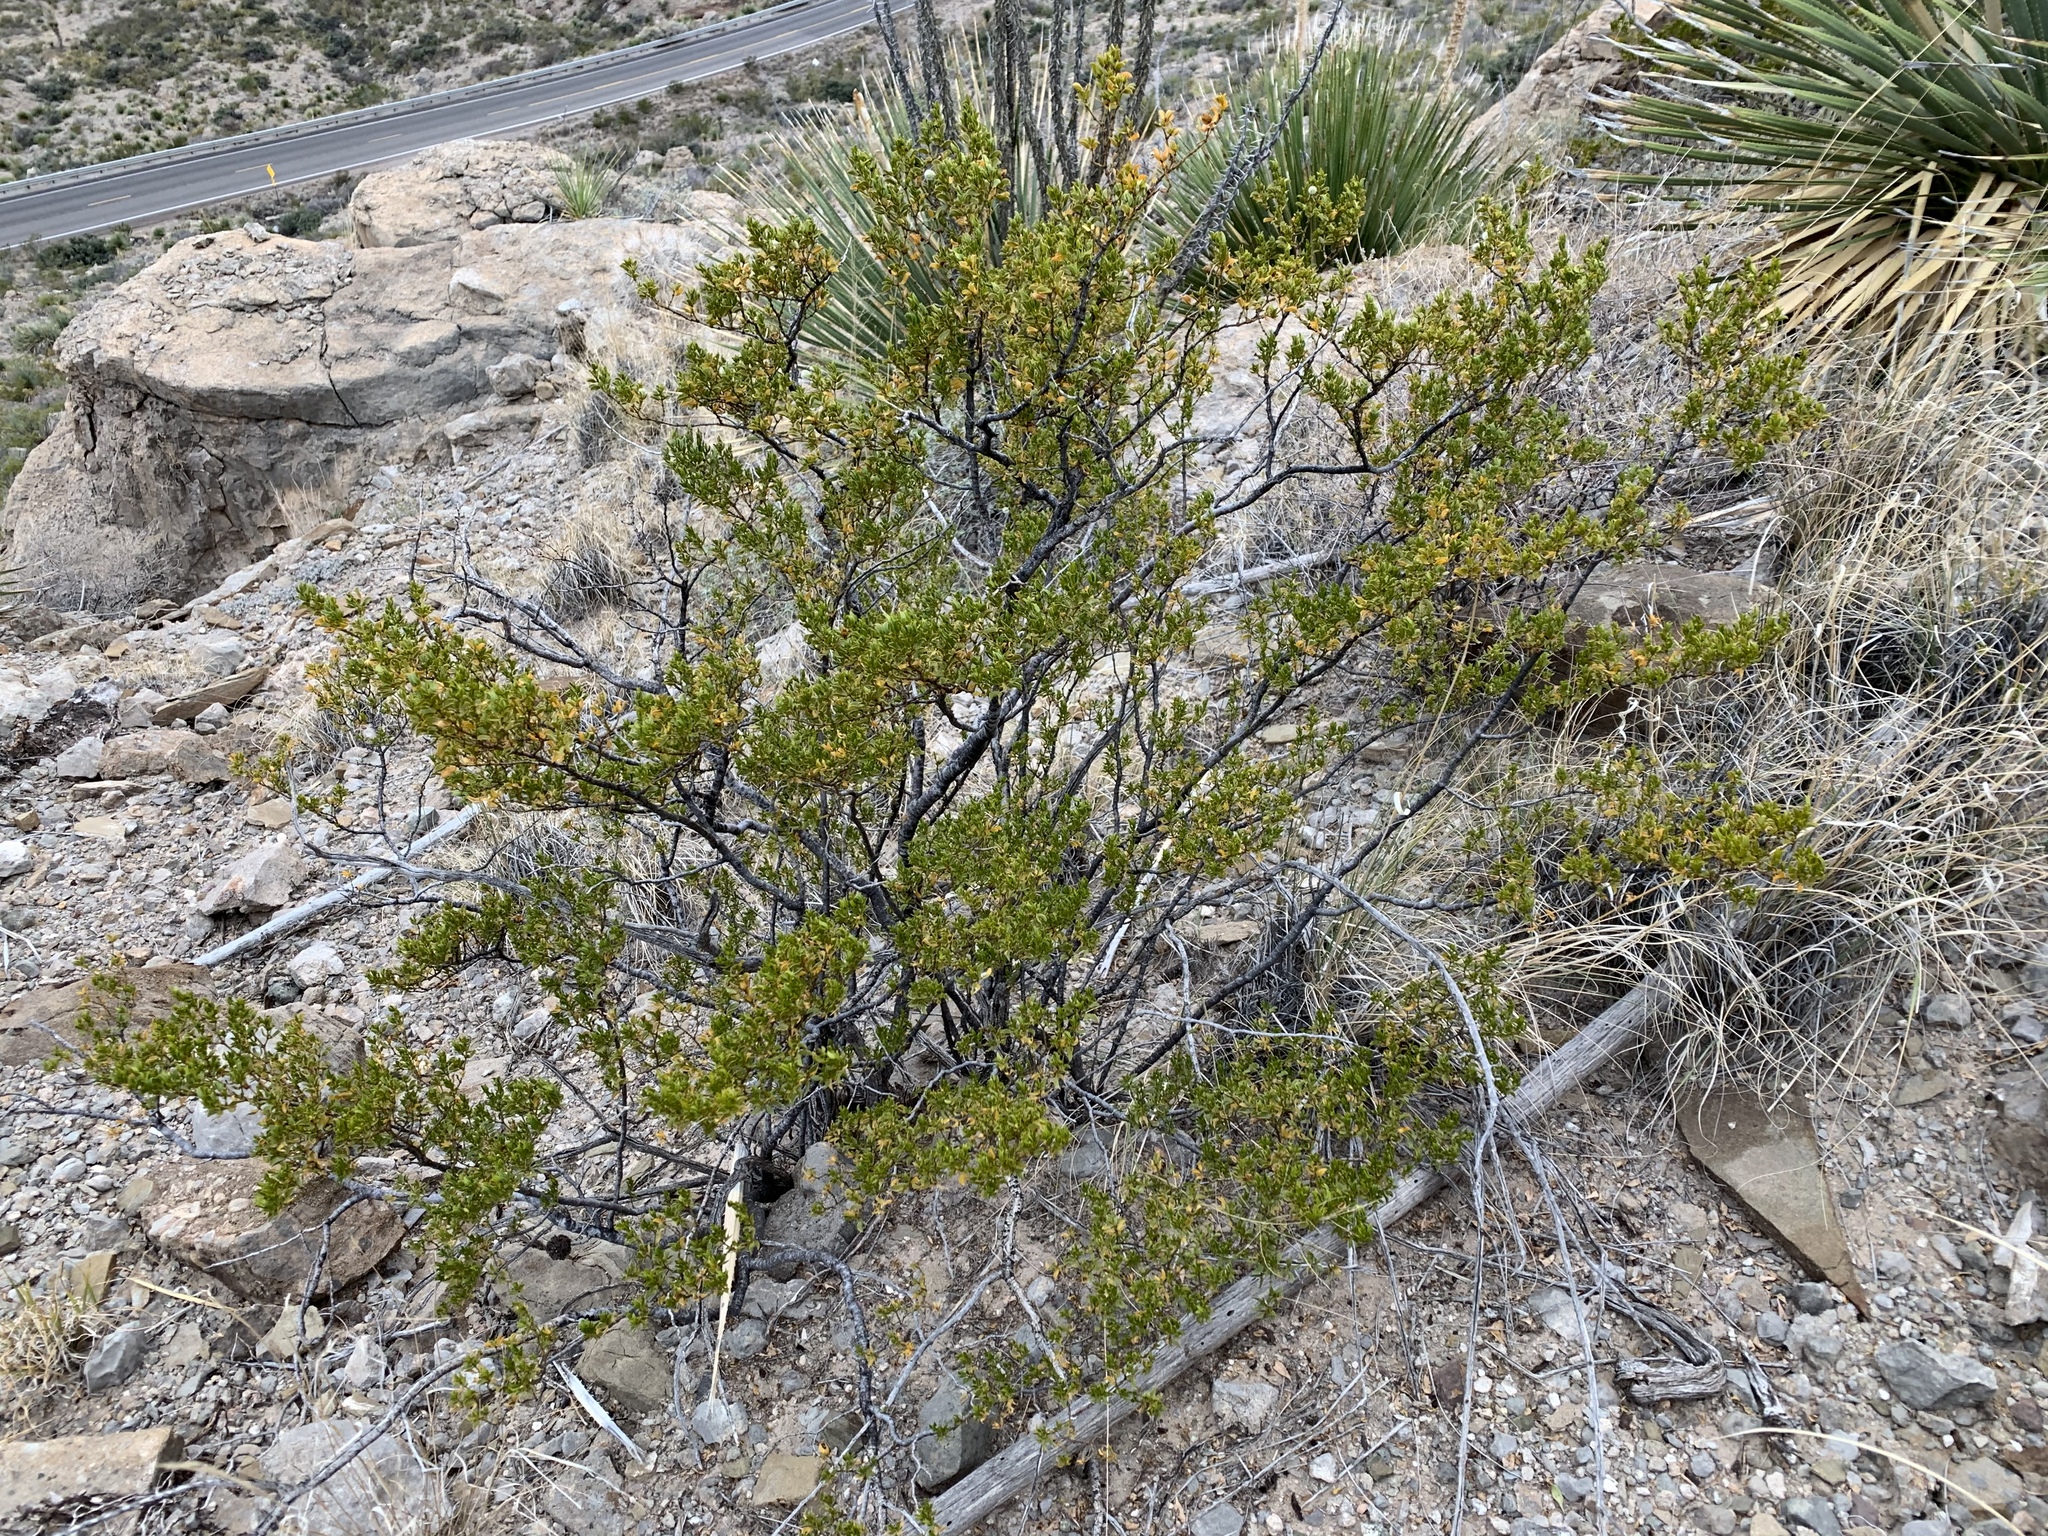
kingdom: Plantae
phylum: Tracheophyta
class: Magnoliopsida
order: Zygophyllales
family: Zygophyllaceae
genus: Larrea
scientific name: Larrea tridentata
